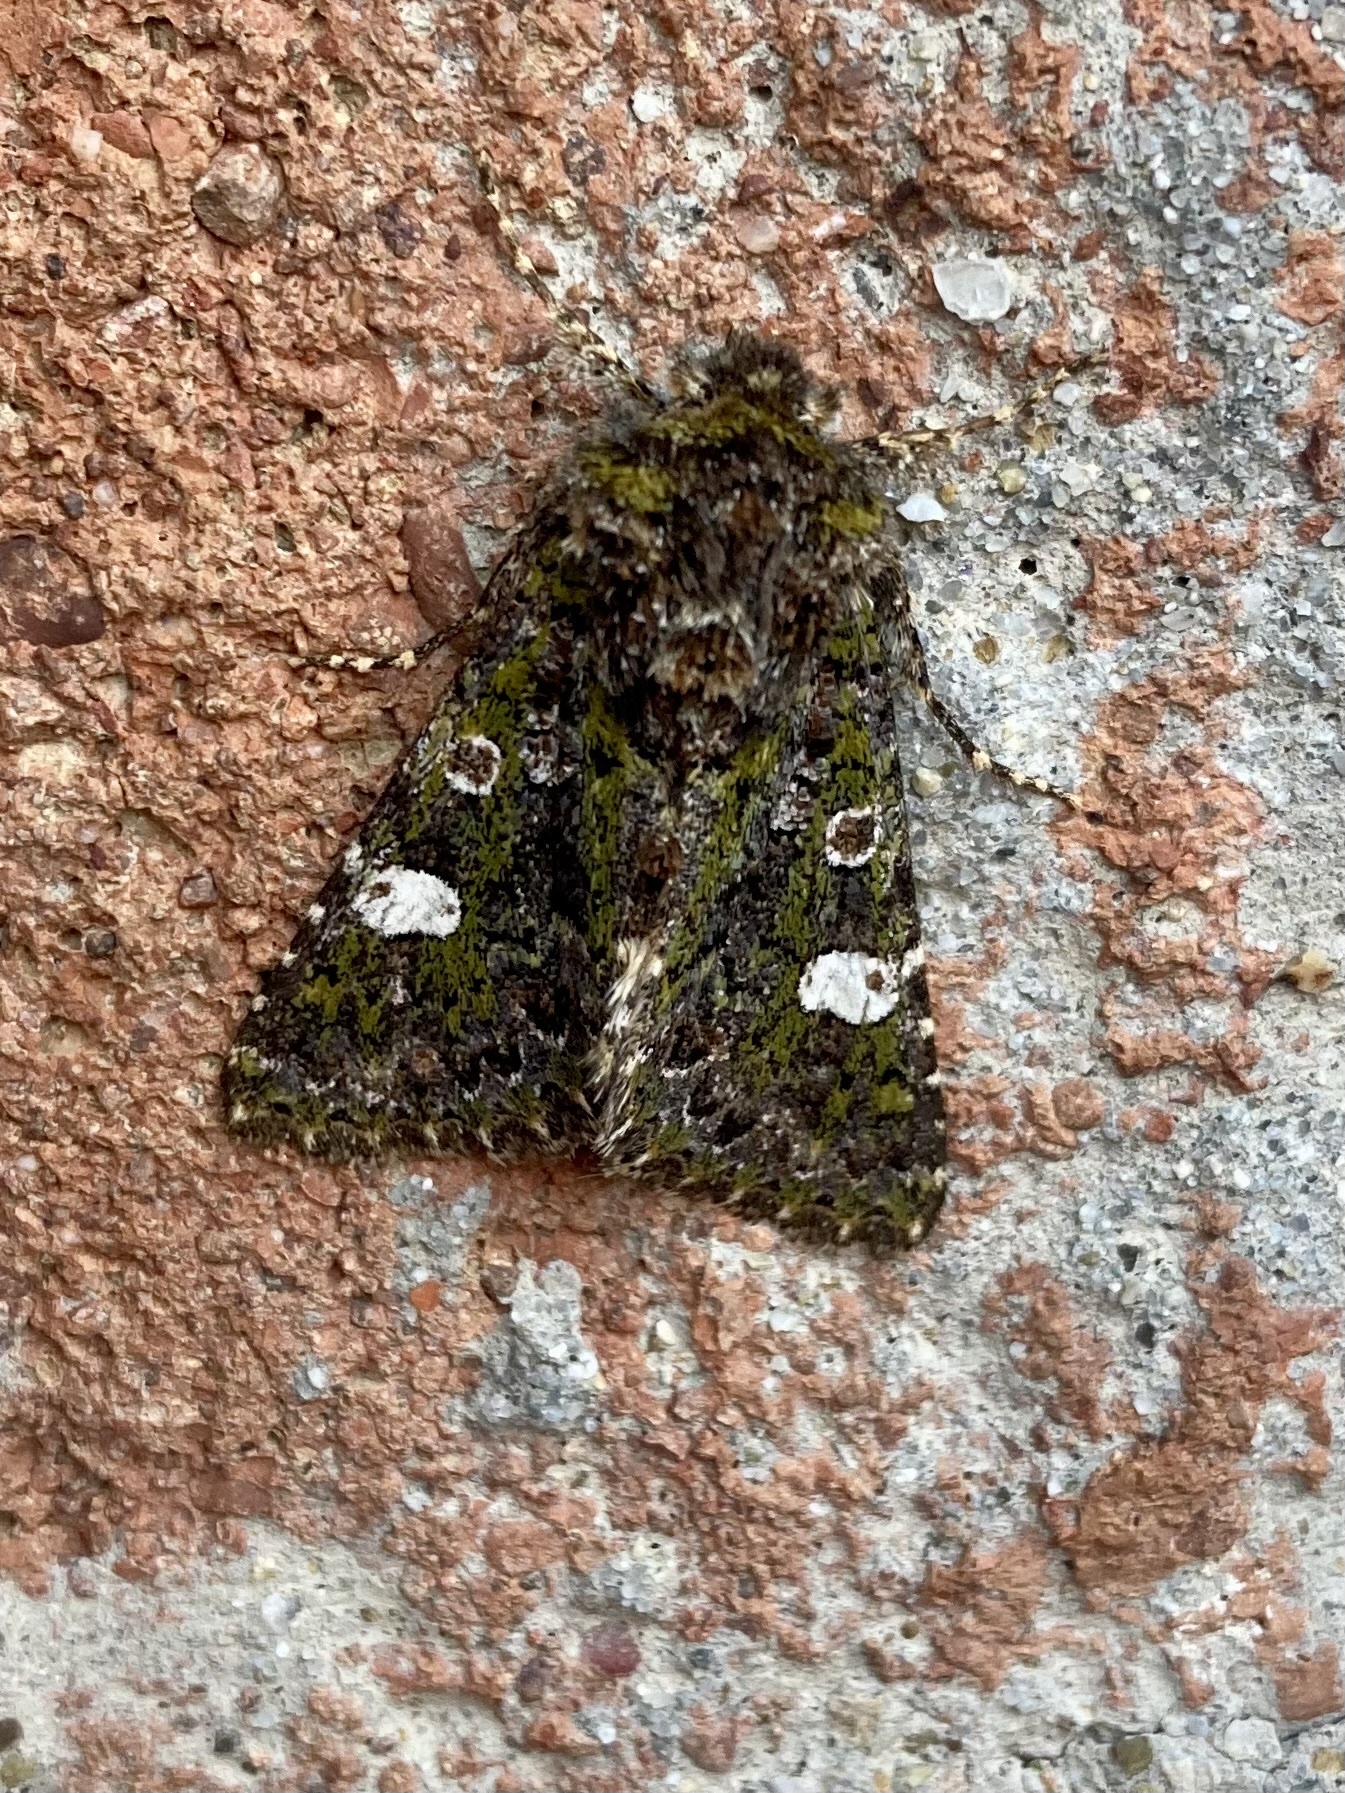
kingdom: Animalia
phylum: Arthropoda
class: Insecta
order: Lepidoptera
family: Noctuidae
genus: Valeria
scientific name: Valeria oleagina
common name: Green-brindled dot
